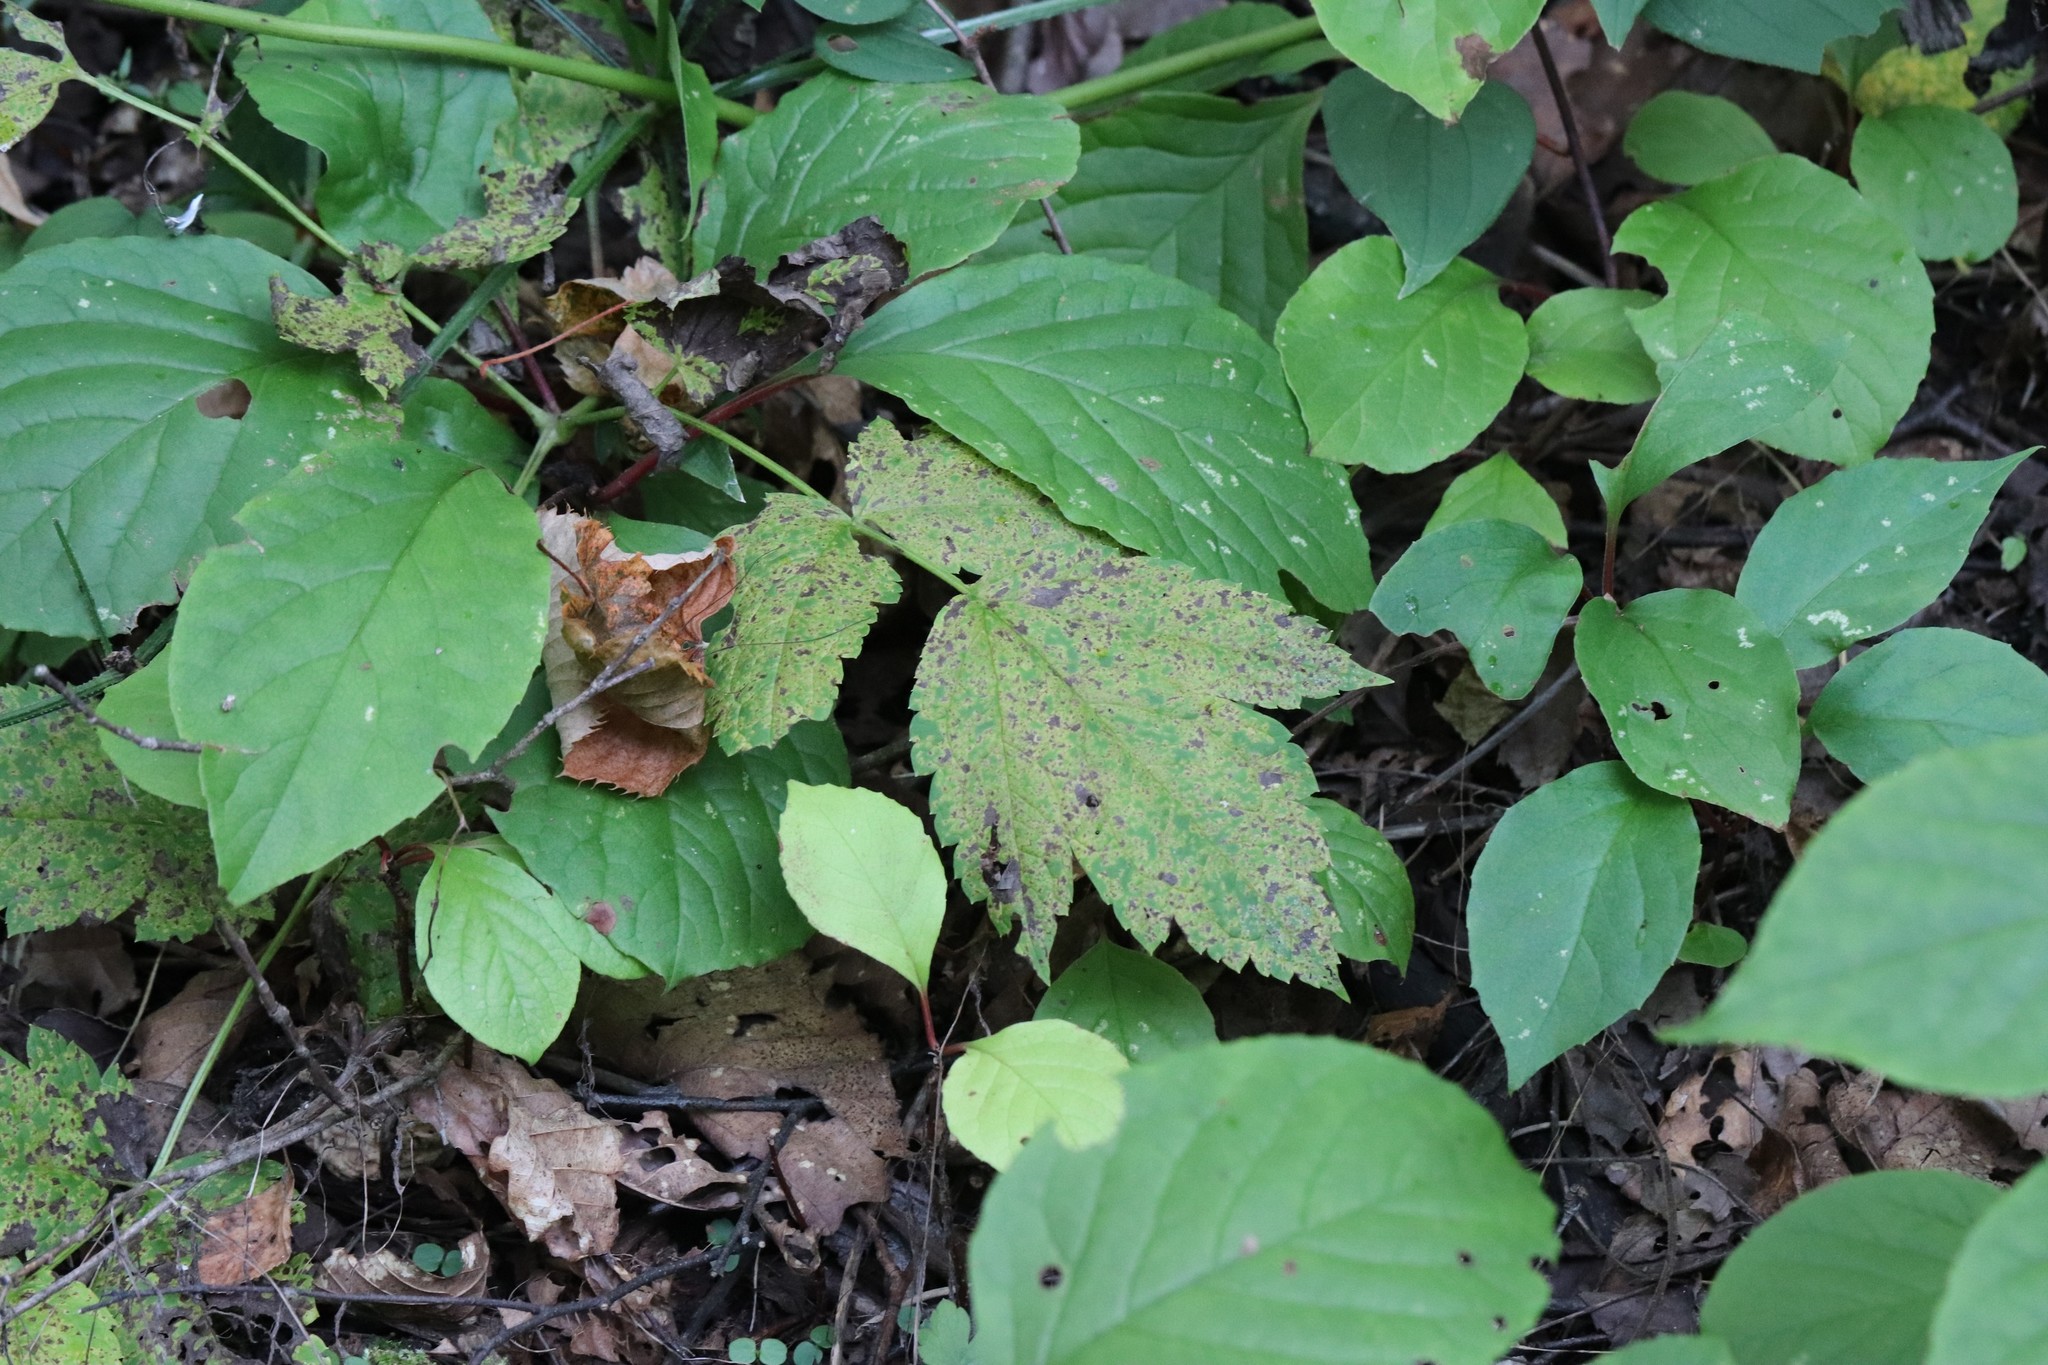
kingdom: Plantae
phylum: Tracheophyta
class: Magnoliopsida
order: Ranunculales
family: Ranunculaceae
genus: Actaea
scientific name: Actaea dahurica
